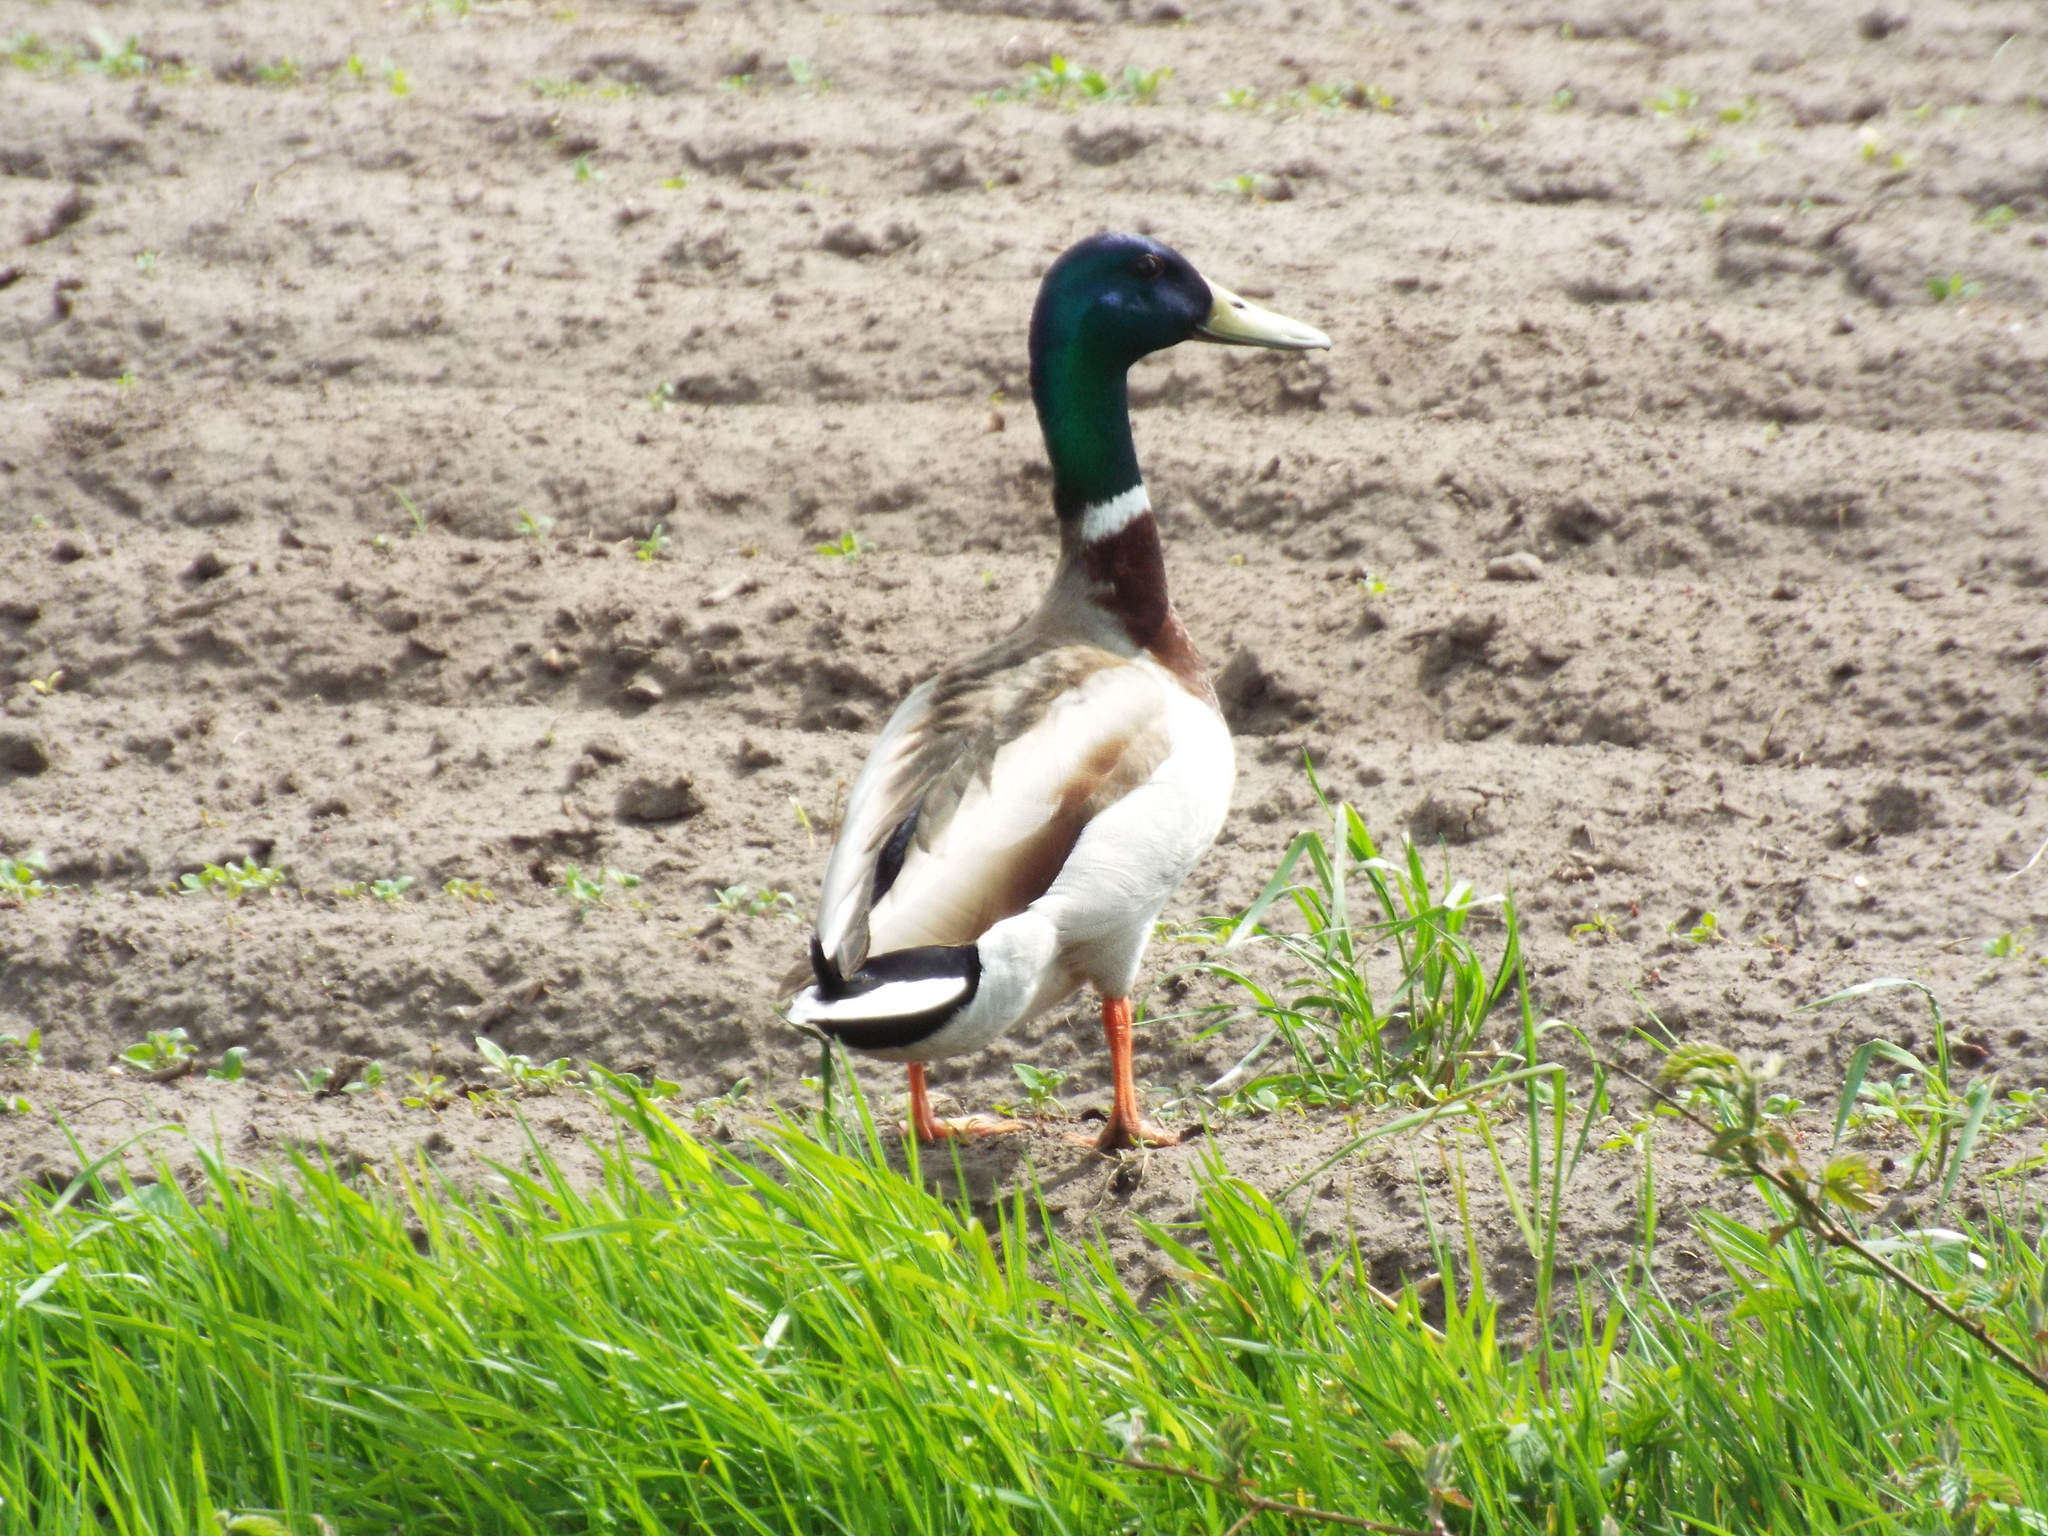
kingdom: Animalia
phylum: Chordata
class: Aves
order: Anseriformes
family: Anatidae
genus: Anas
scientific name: Anas platyrhynchos
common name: Mallard
